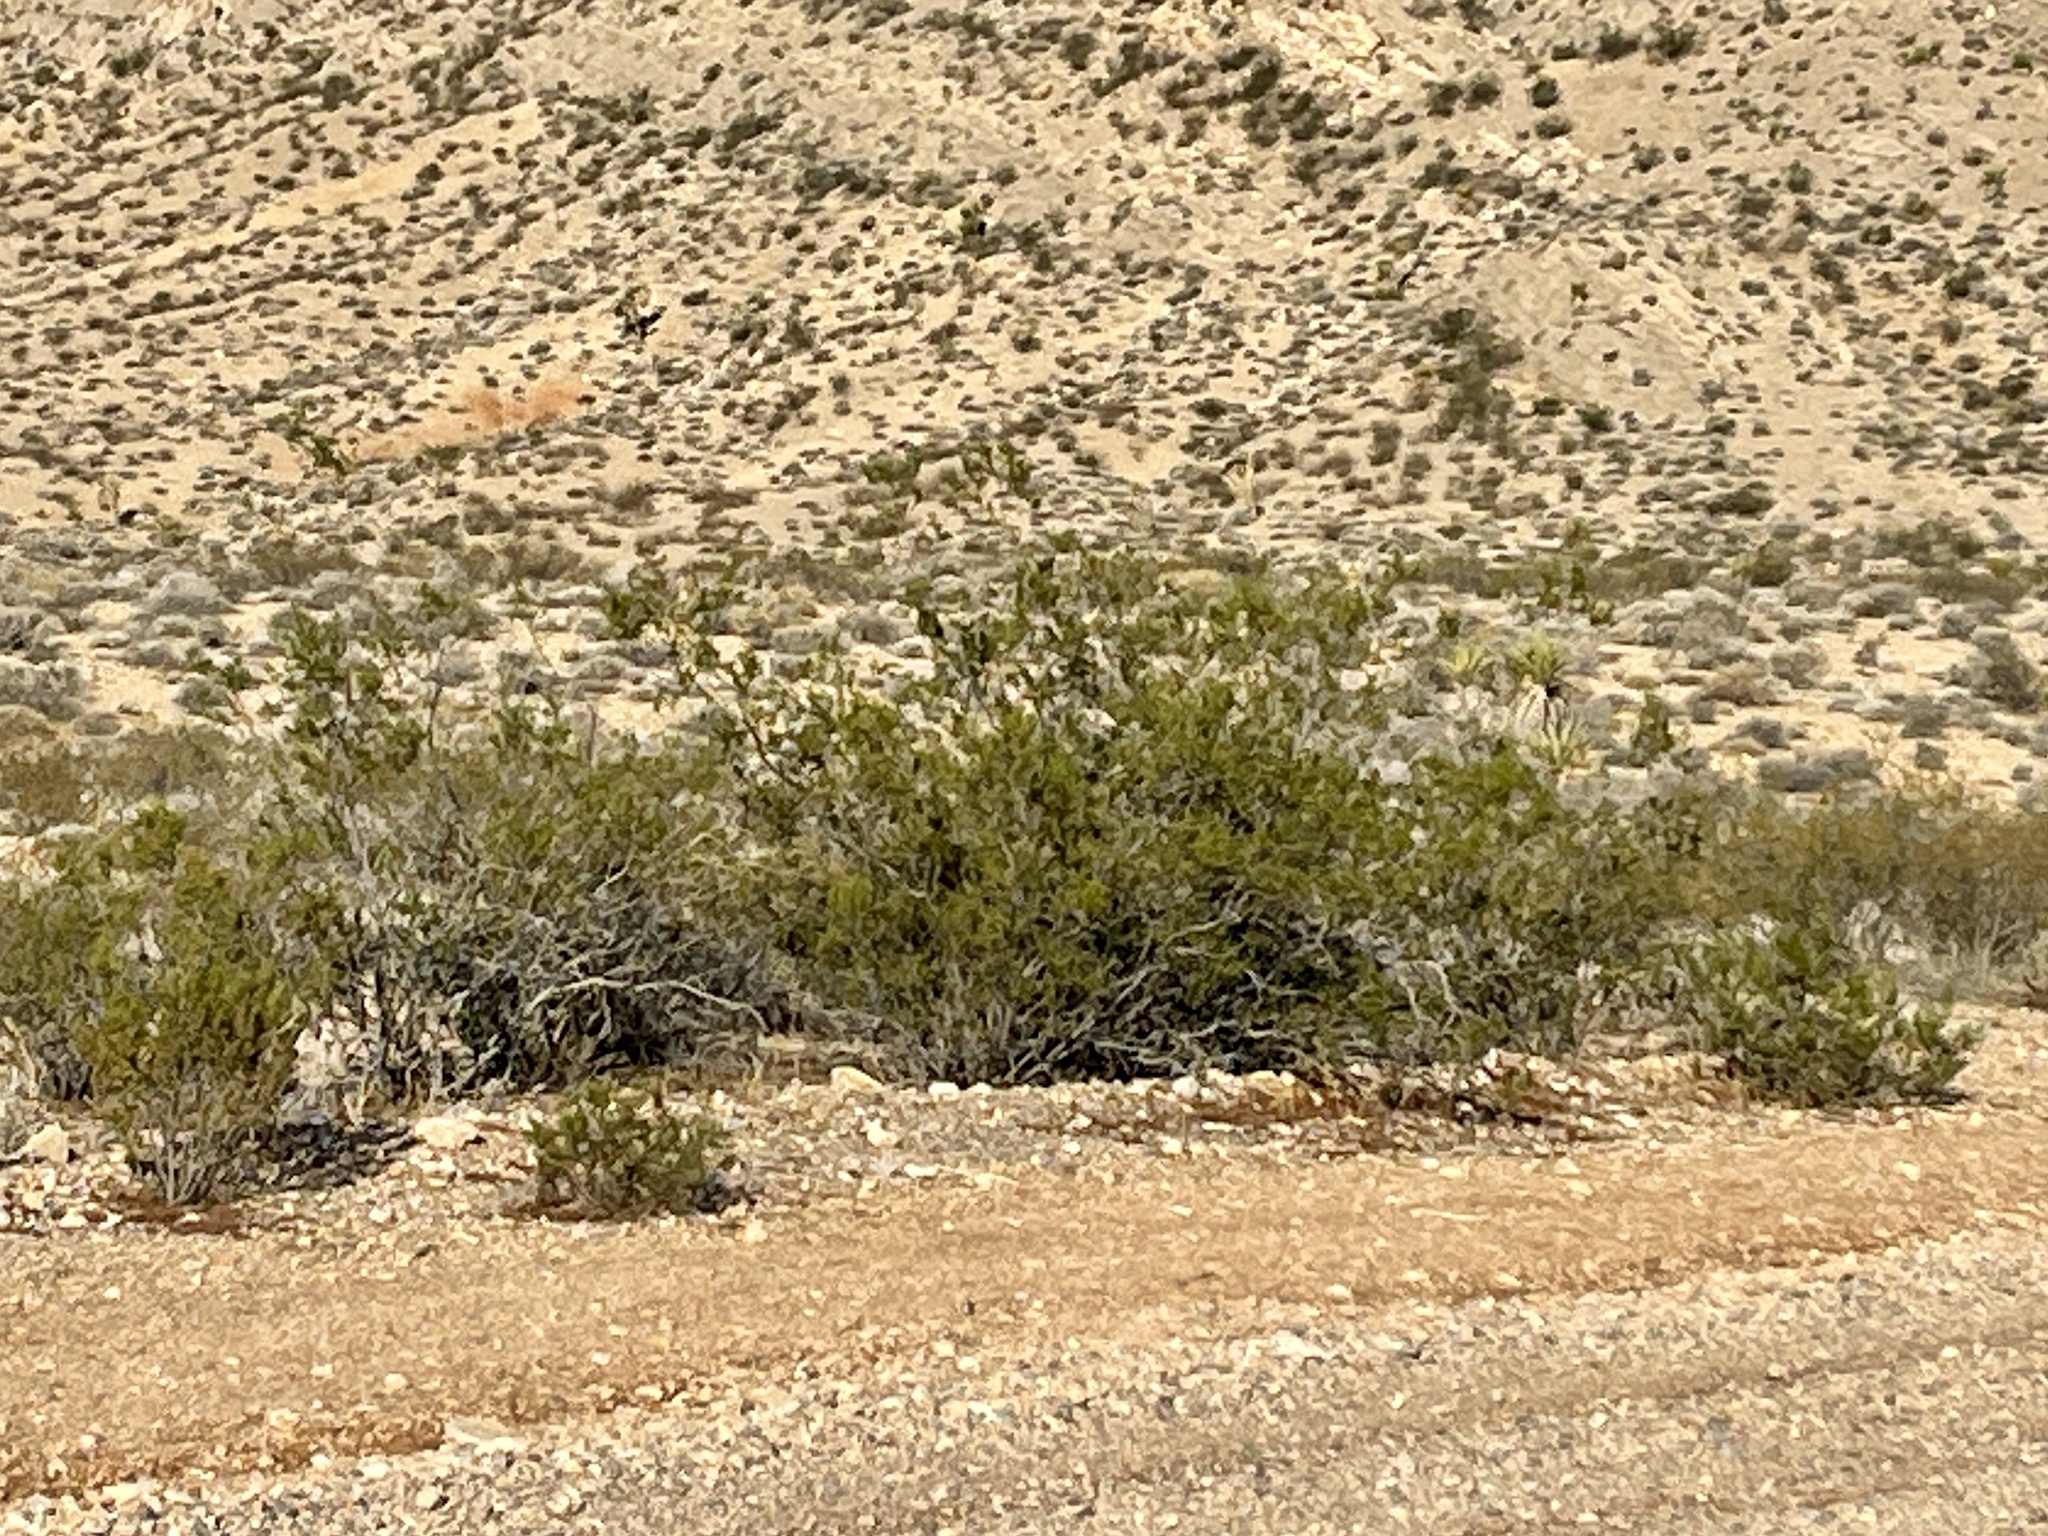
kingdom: Plantae
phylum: Tracheophyta
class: Magnoliopsida
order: Zygophyllales
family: Zygophyllaceae
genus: Larrea
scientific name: Larrea tridentata
